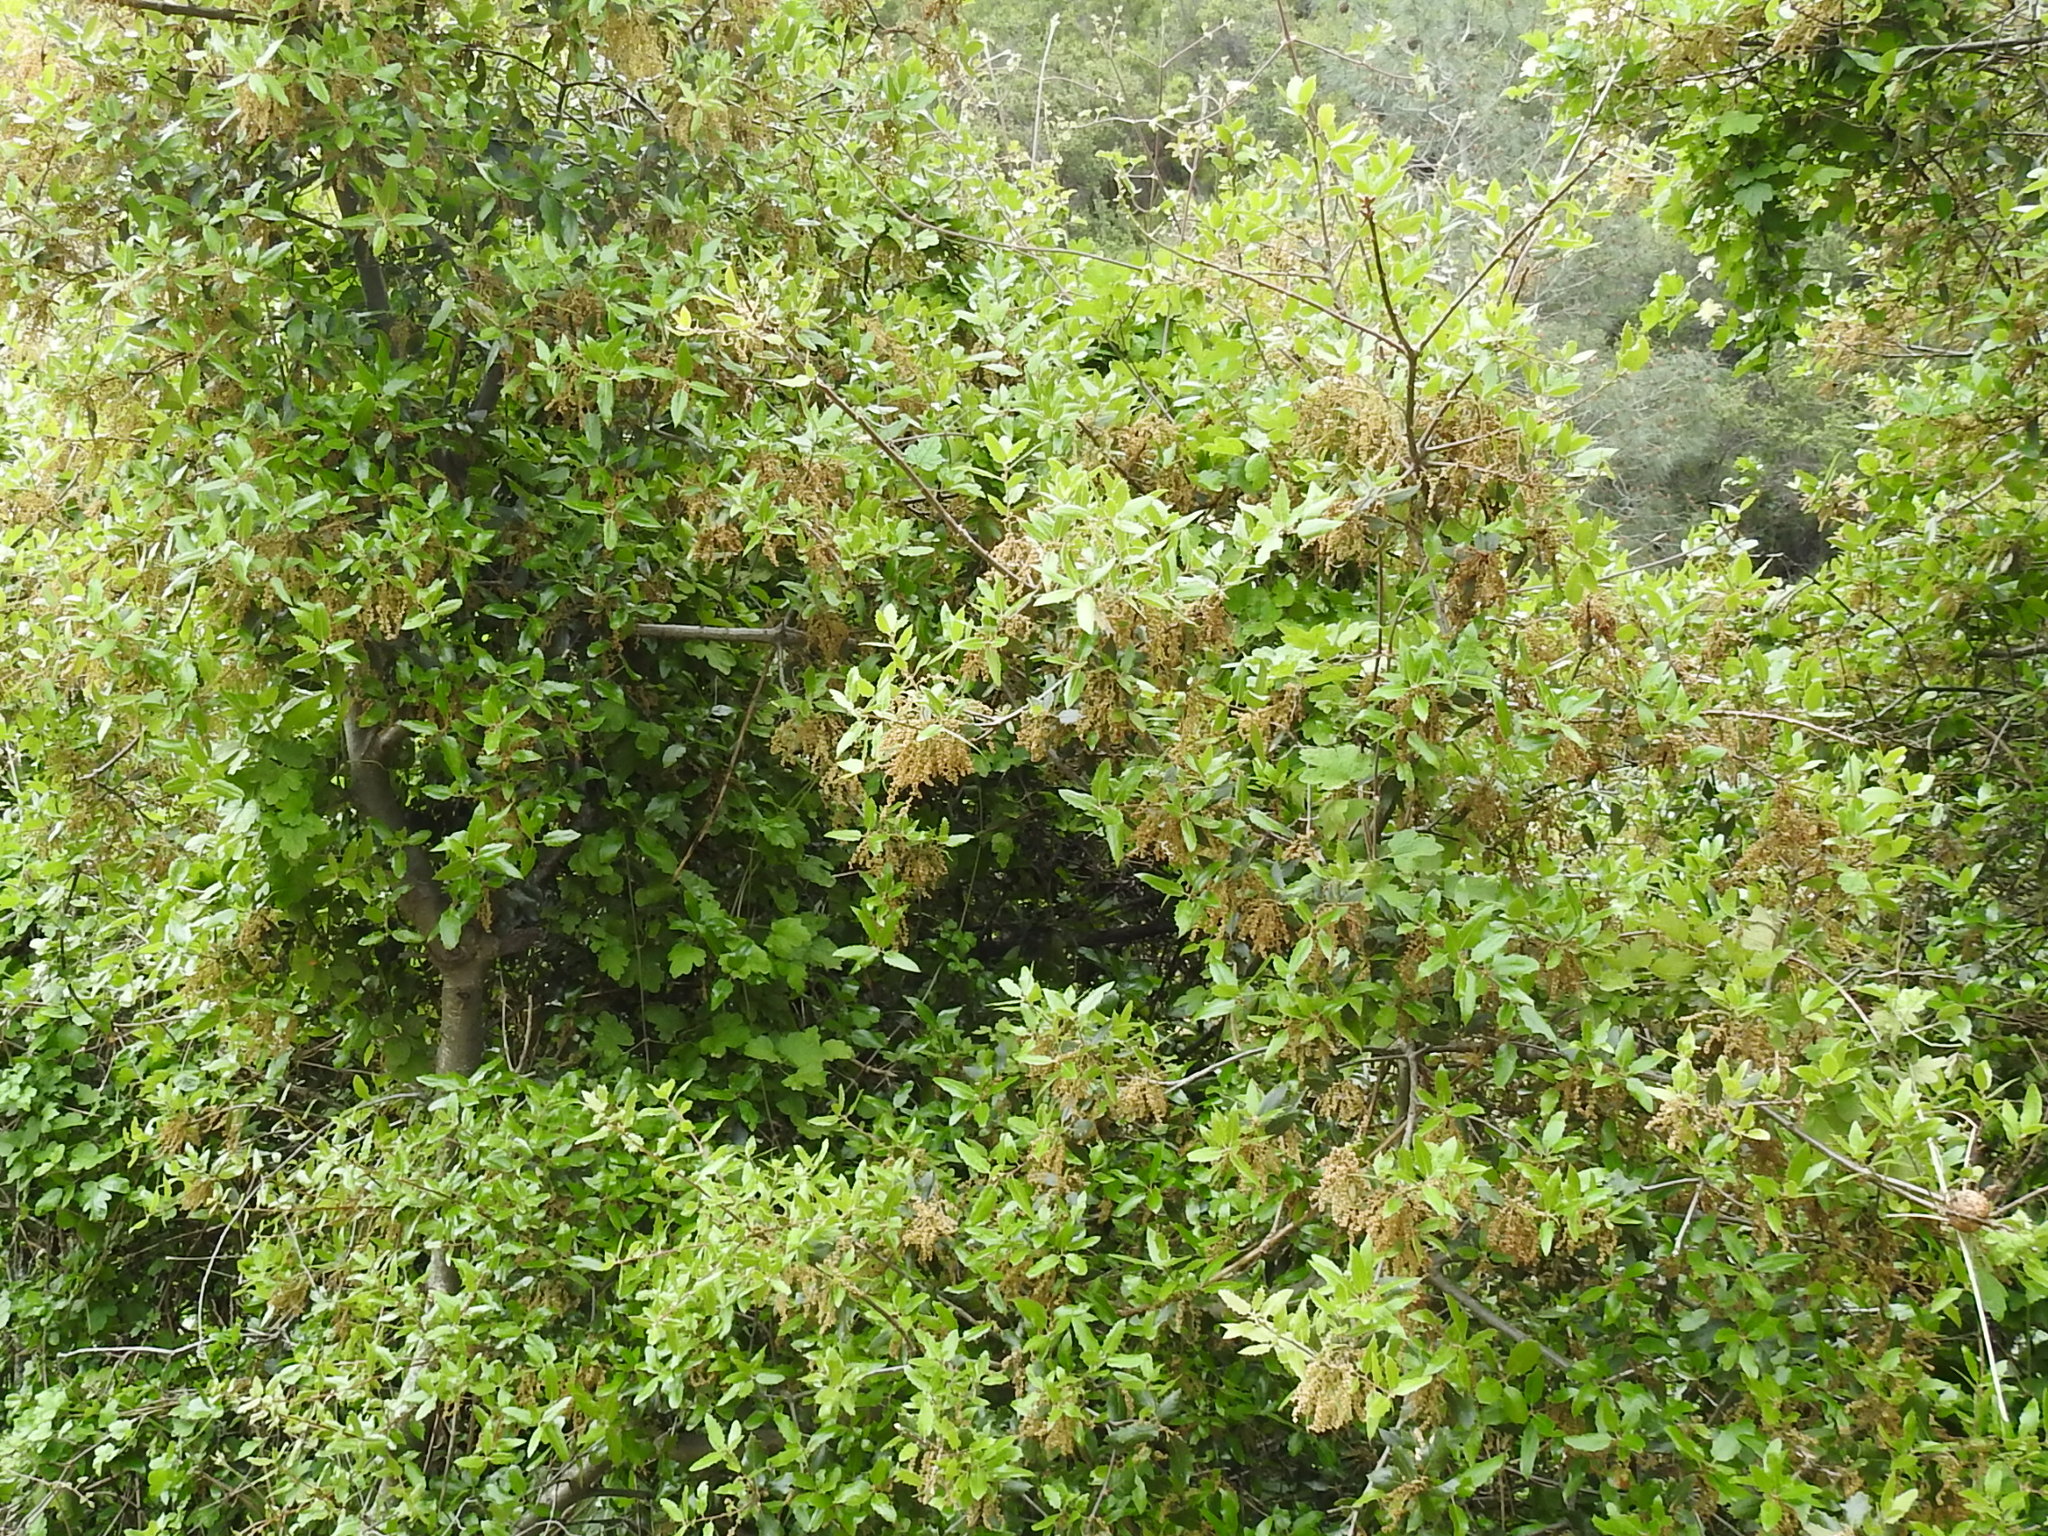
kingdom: Plantae
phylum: Tracheophyta
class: Magnoliopsida
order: Fagales
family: Fagaceae
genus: Quercus
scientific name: Quercus agrifolia
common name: California live oak
